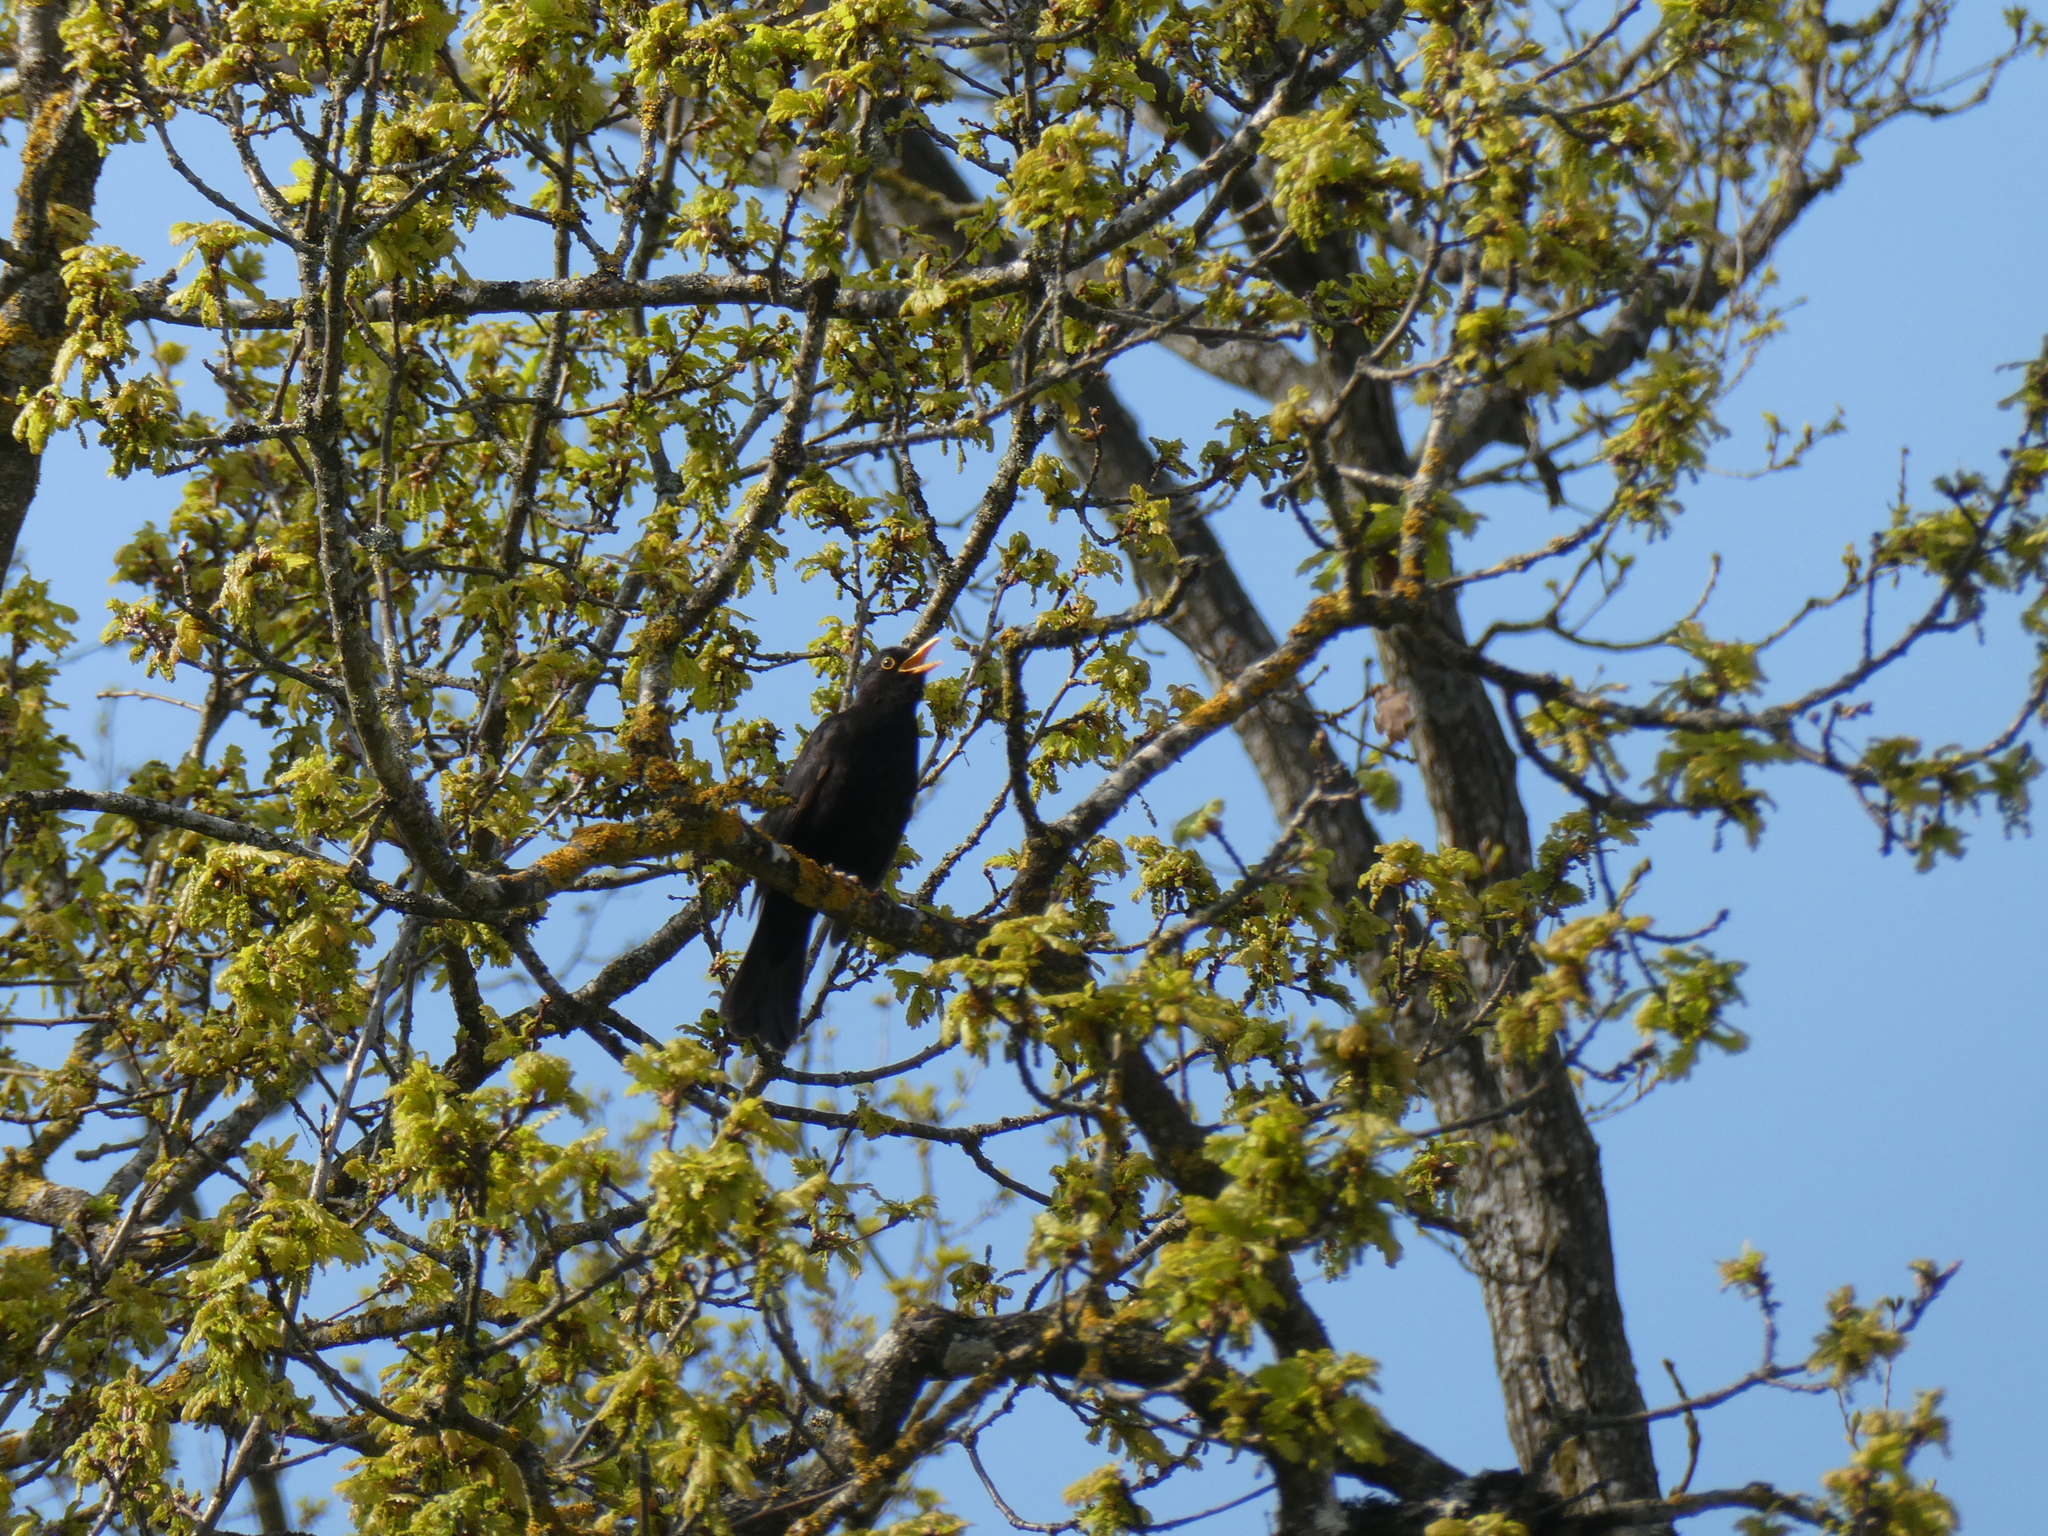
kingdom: Animalia
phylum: Chordata
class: Aves
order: Passeriformes
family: Turdidae
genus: Turdus
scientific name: Turdus merula
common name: Common blackbird
